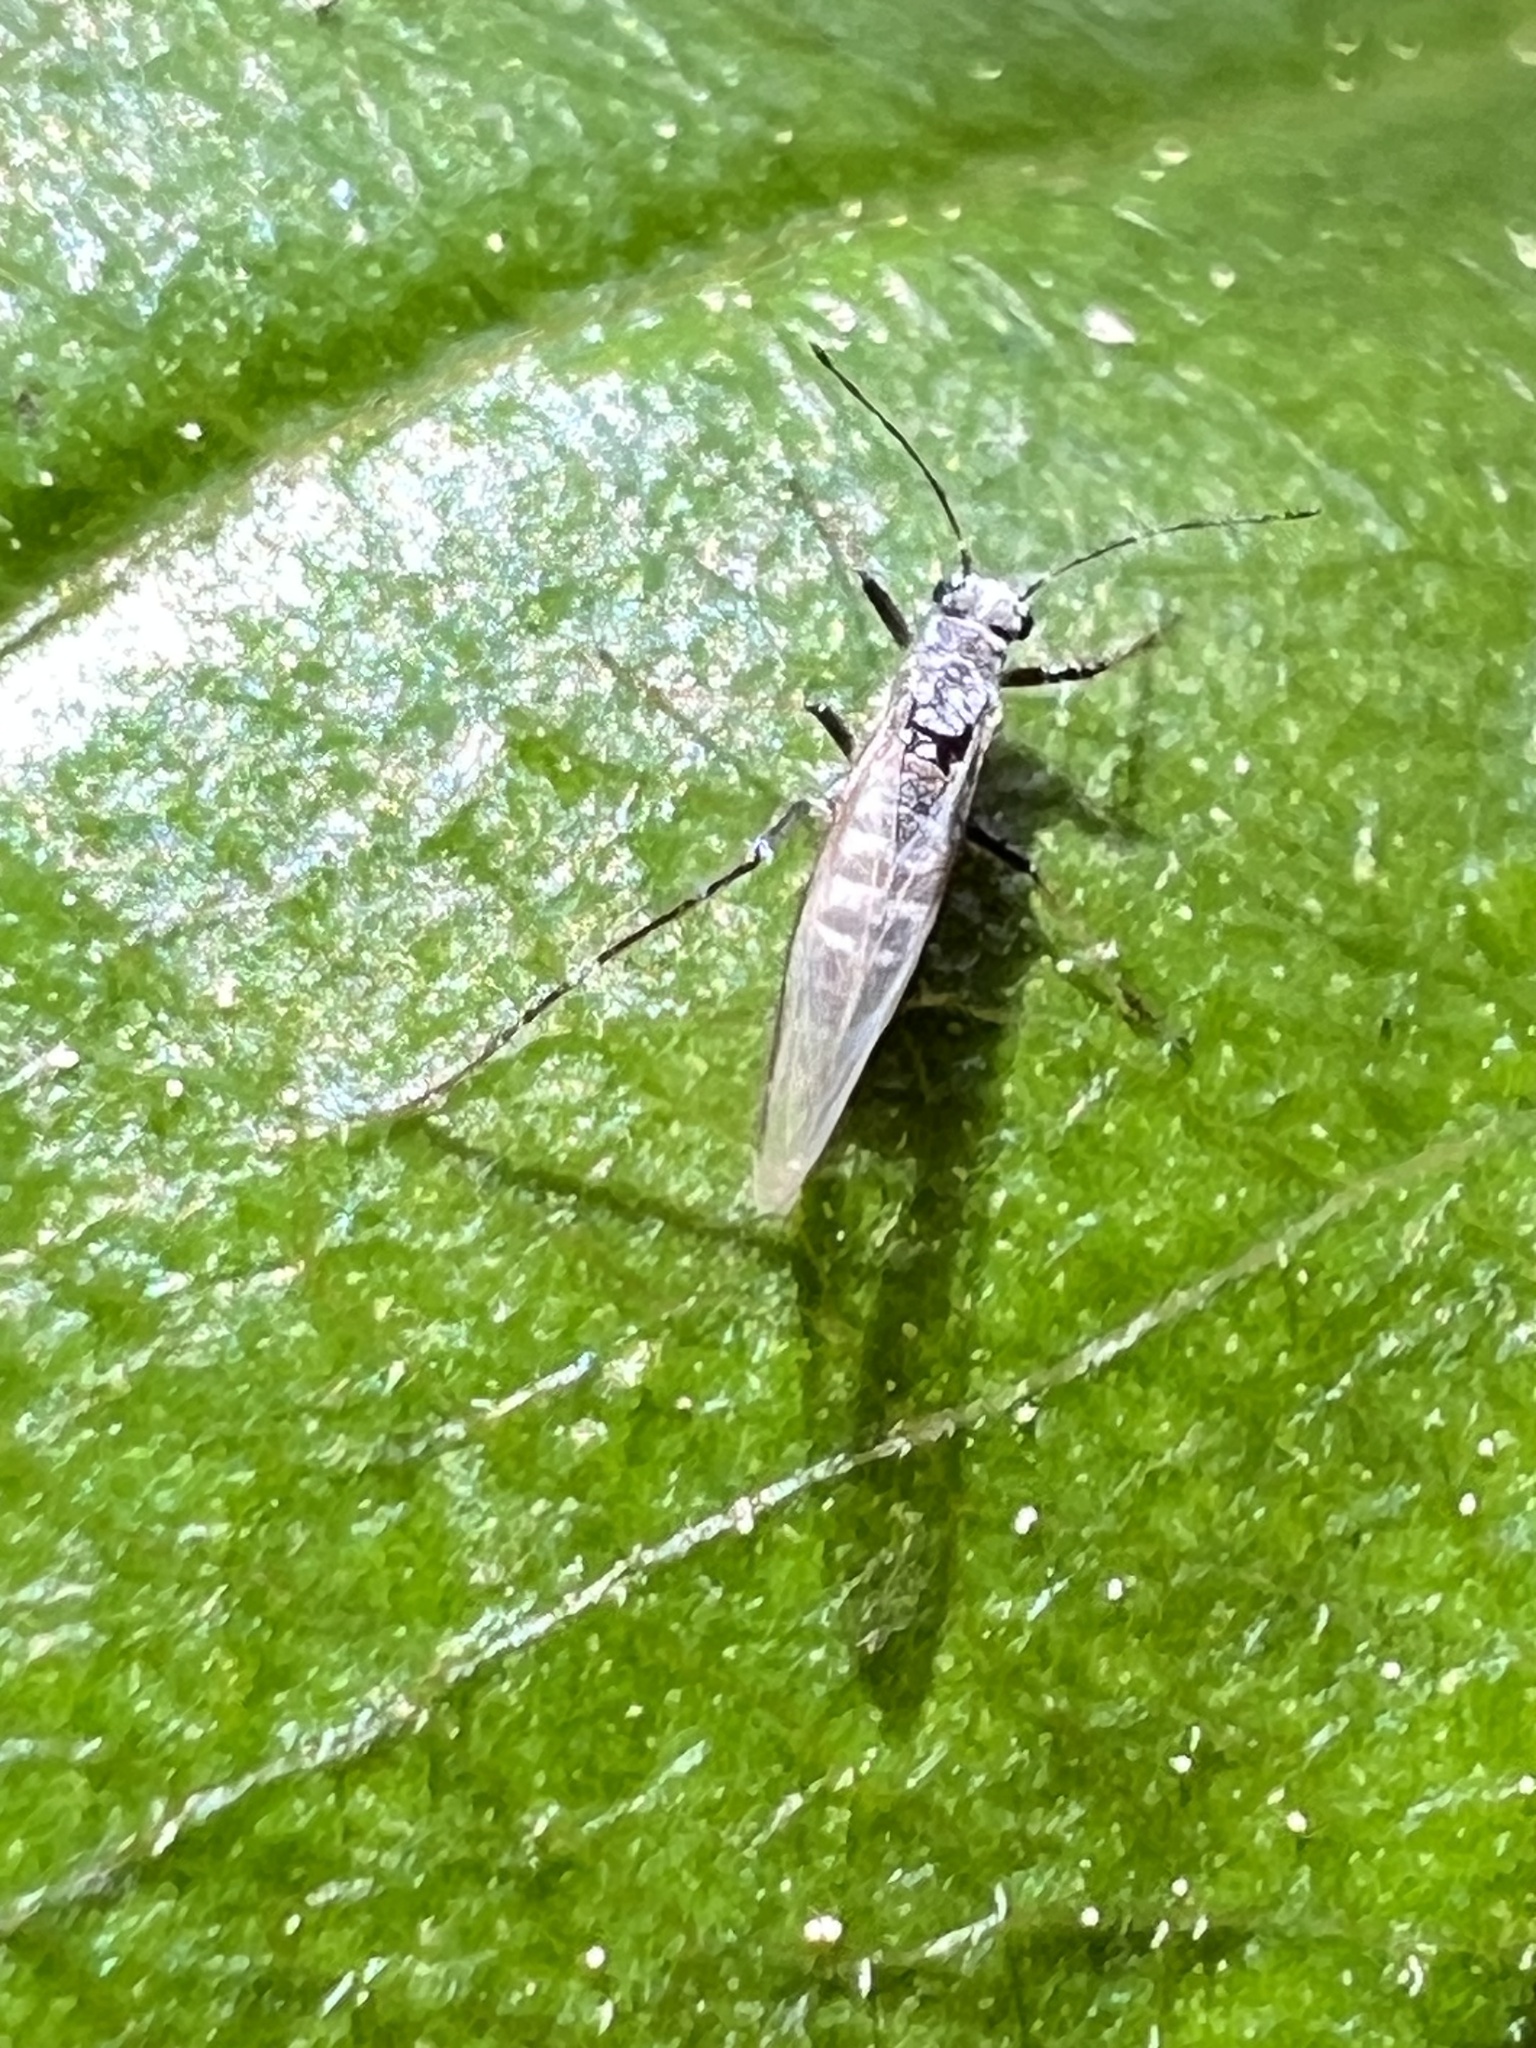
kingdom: Animalia
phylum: Arthropoda
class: Insecta
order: Hemiptera
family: Aphididae
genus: Eulachnus
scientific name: Eulachnus rileyi
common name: Active gray pine needle aphid
